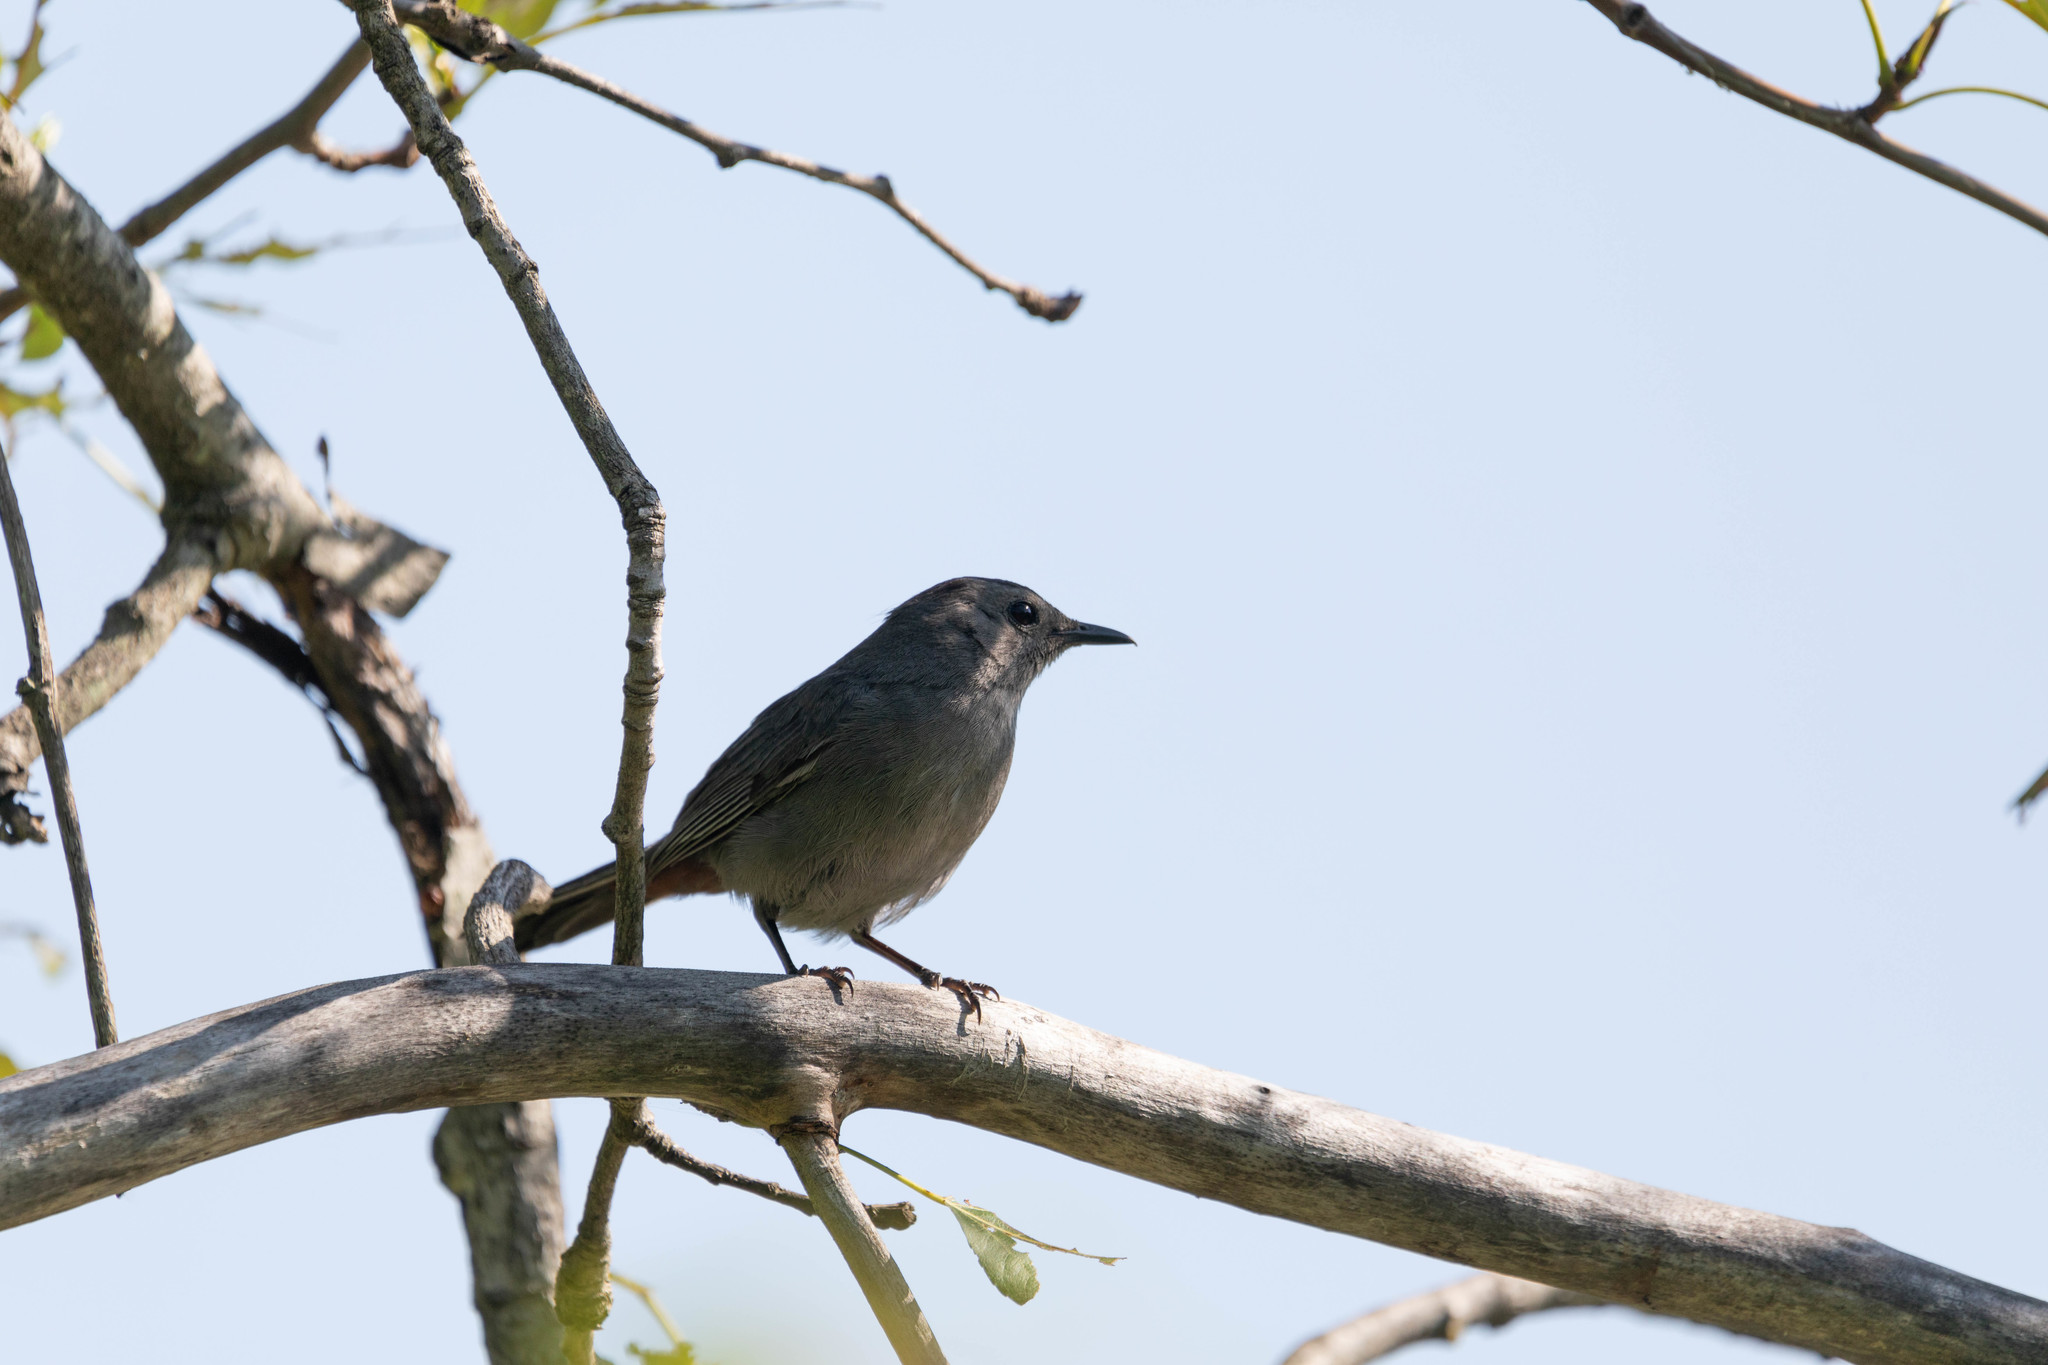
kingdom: Animalia
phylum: Chordata
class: Aves
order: Passeriformes
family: Mimidae
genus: Dumetella
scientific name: Dumetella carolinensis
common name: Gray catbird
